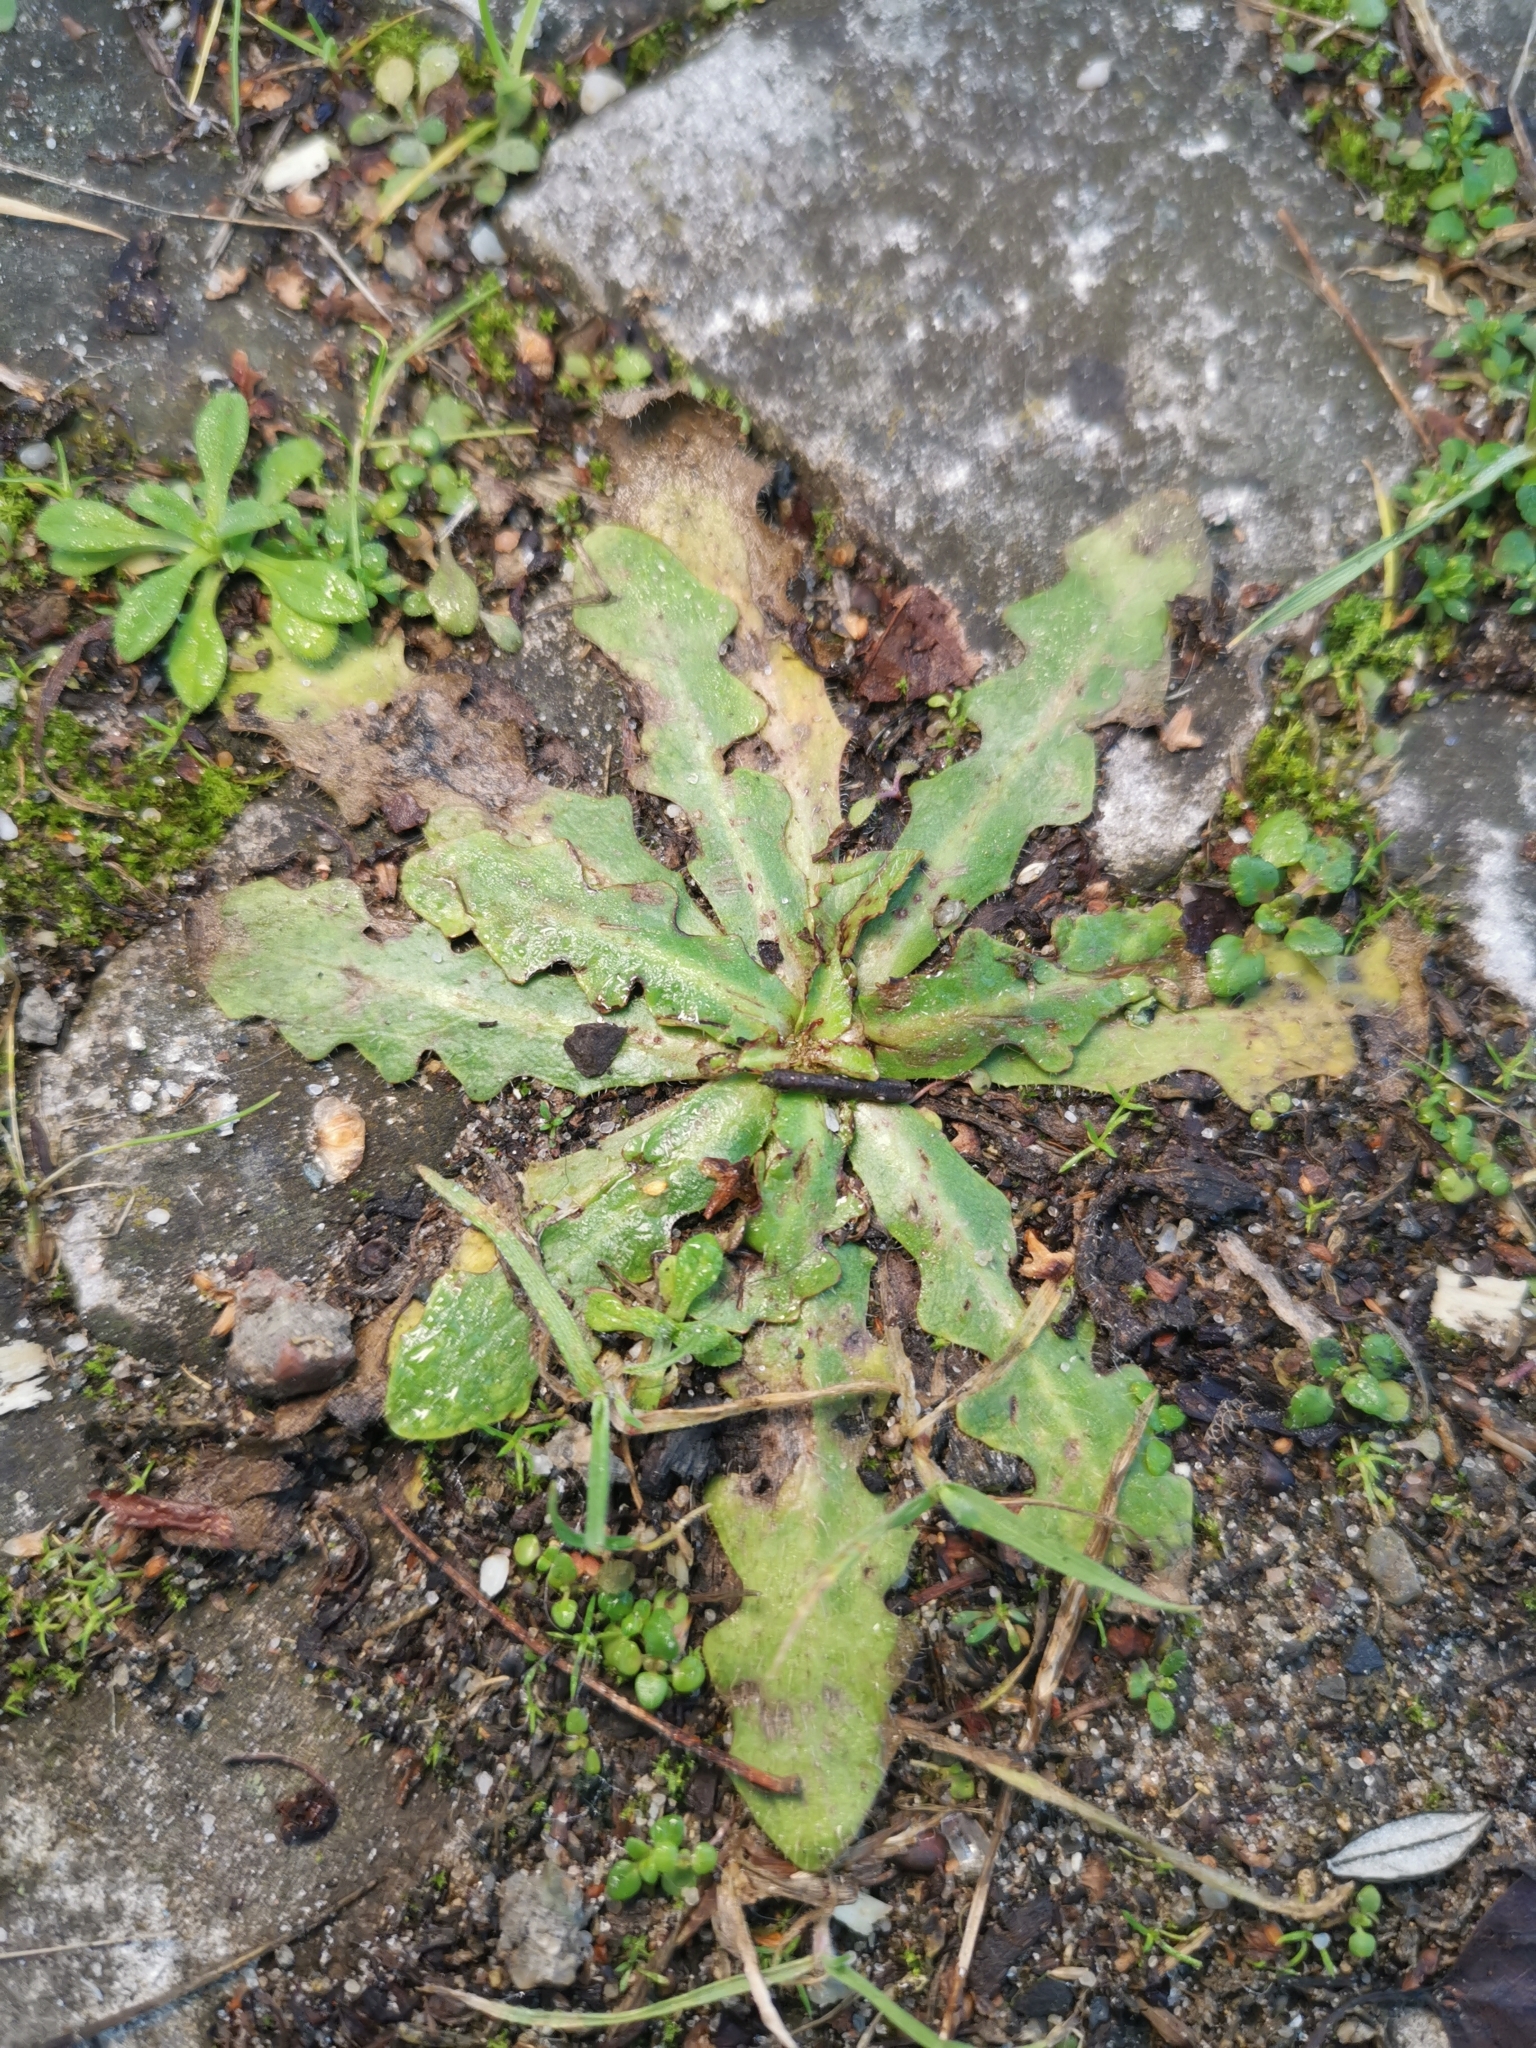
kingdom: Plantae
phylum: Tracheophyta
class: Magnoliopsida
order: Asterales
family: Asteraceae
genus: Hypochaeris
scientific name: Hypochaeris radicata
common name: Flatweed
